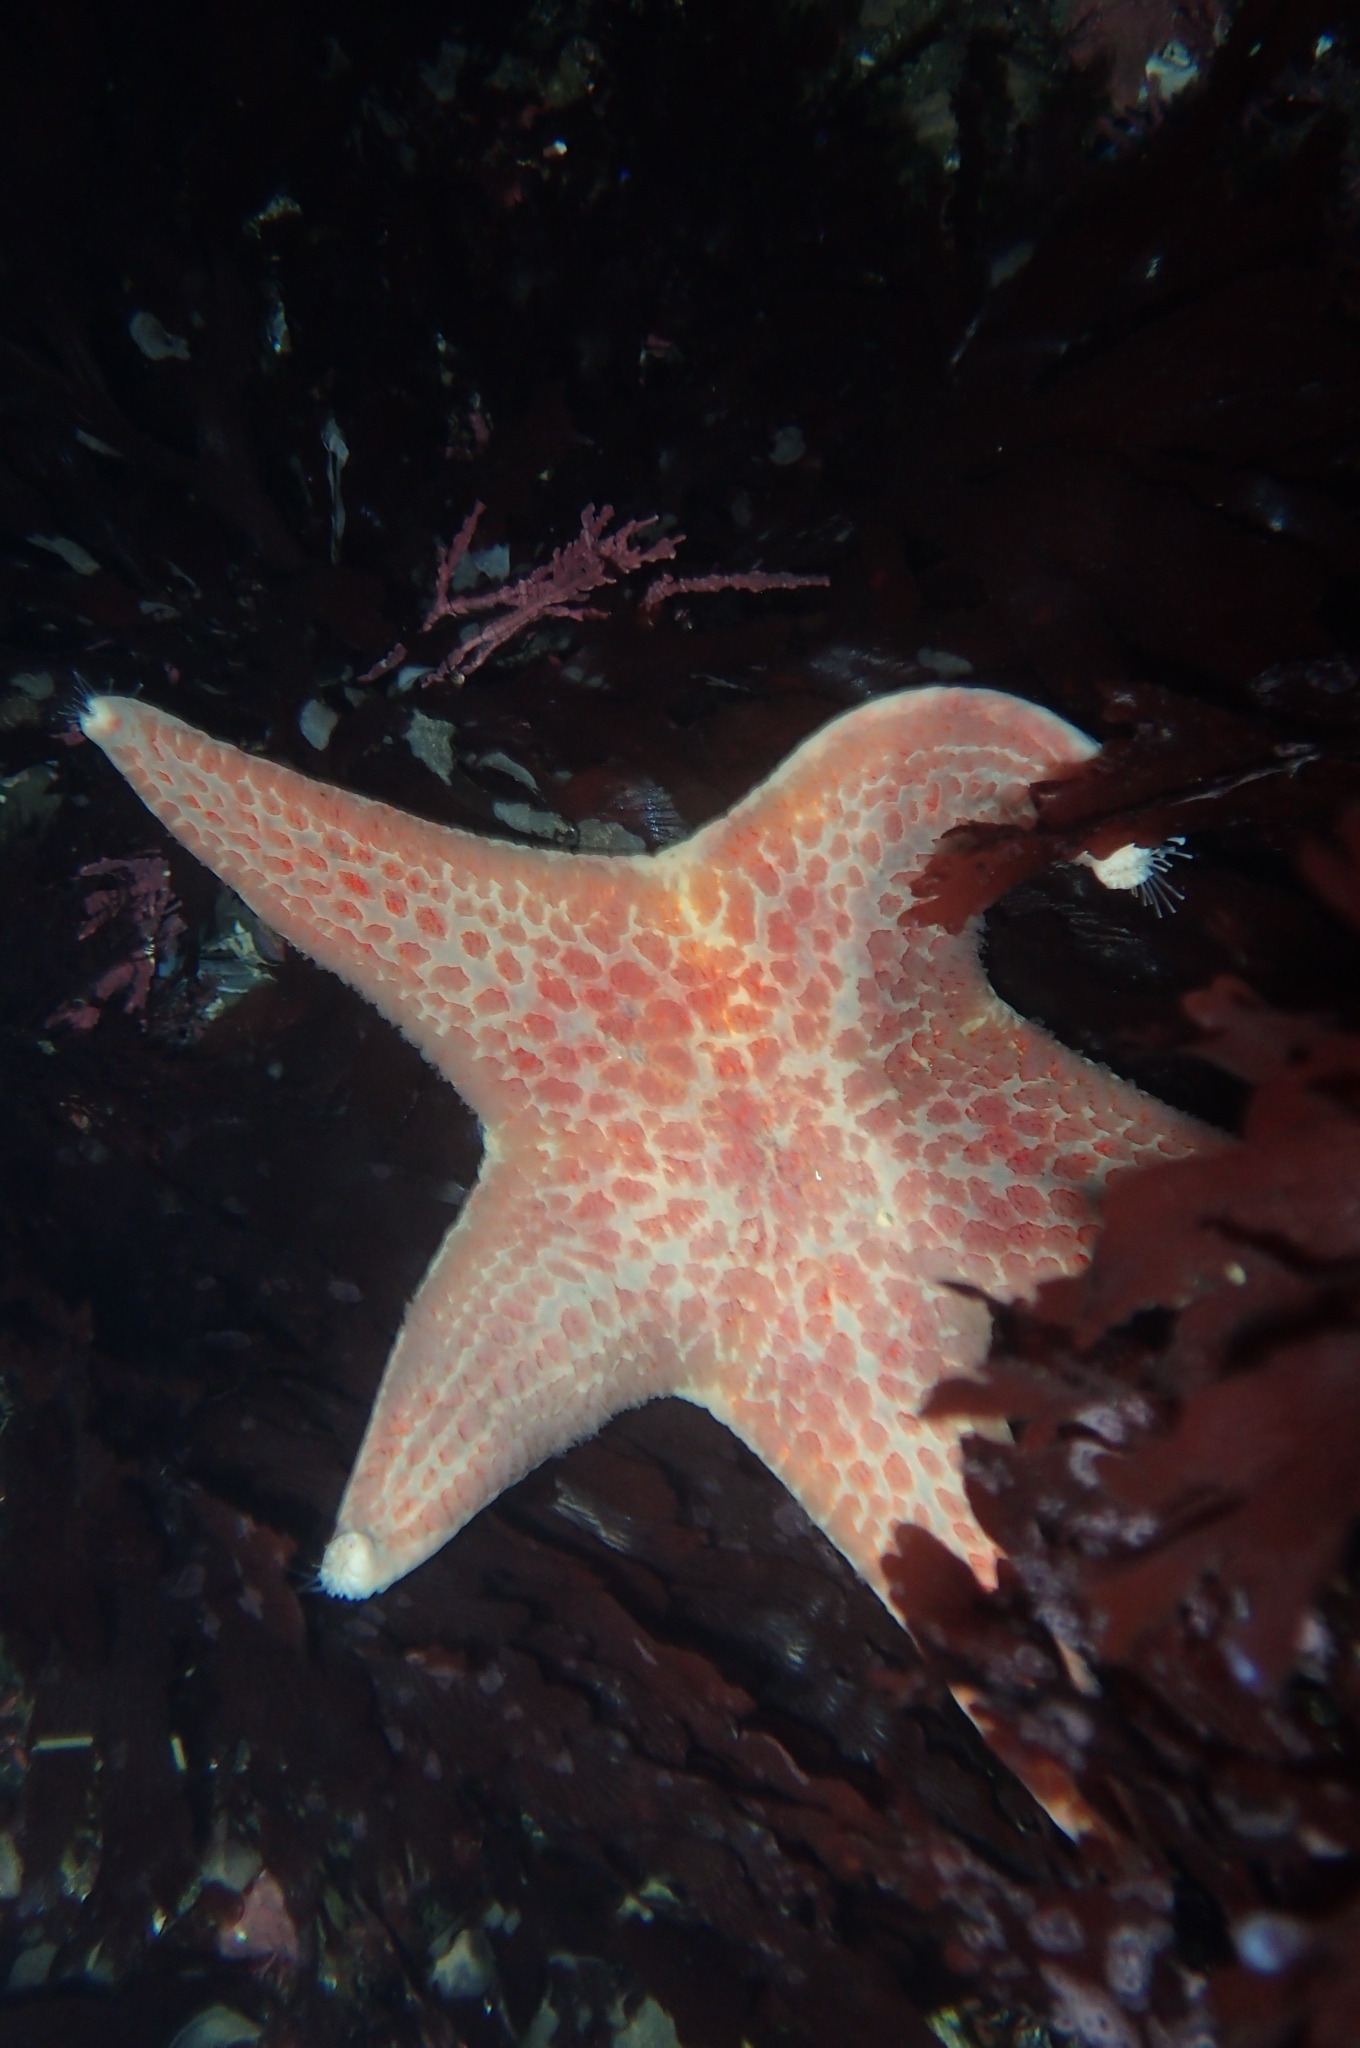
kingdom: Animalia
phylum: Echinodermata
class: Asteroidea
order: Valvatida
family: Asteropseidae
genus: Dermasterias
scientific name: Dermasterias imbricata
